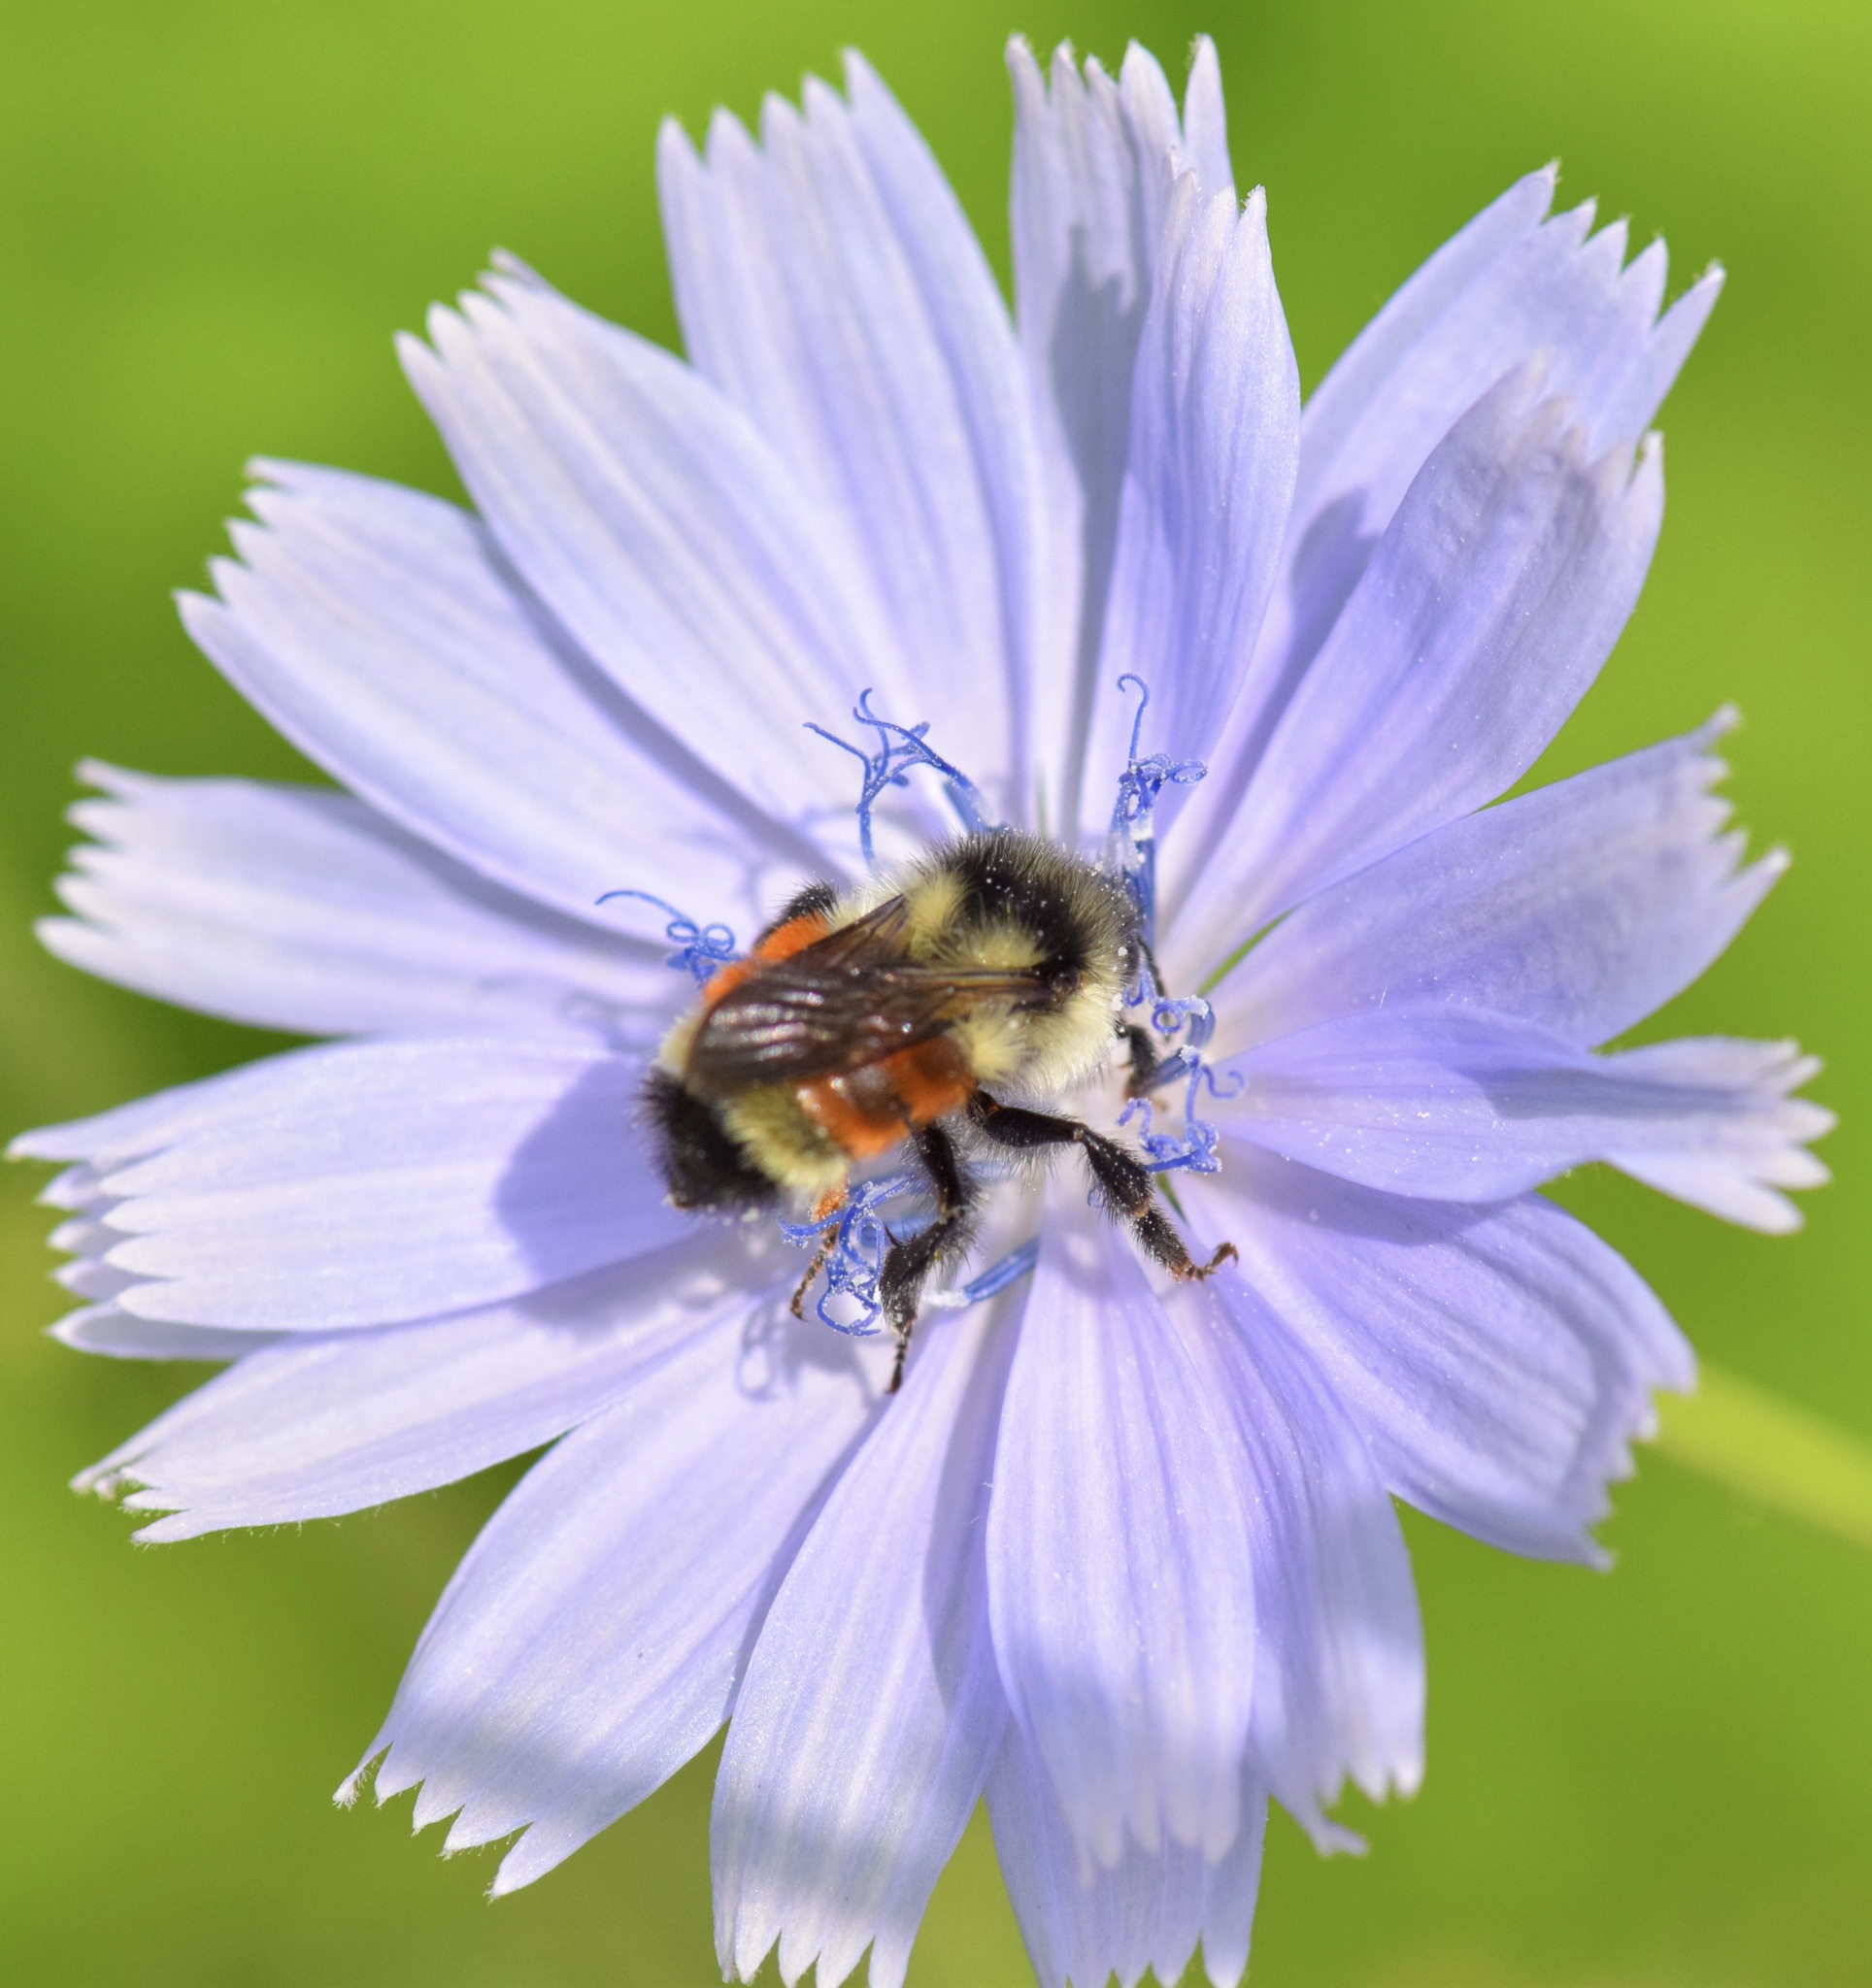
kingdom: Animalia
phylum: Arthropoda
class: Insecta
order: Hymenoptera
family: Apidae
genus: Bombus
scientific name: Bombus ternarius
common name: Tri-colored bumble bee
